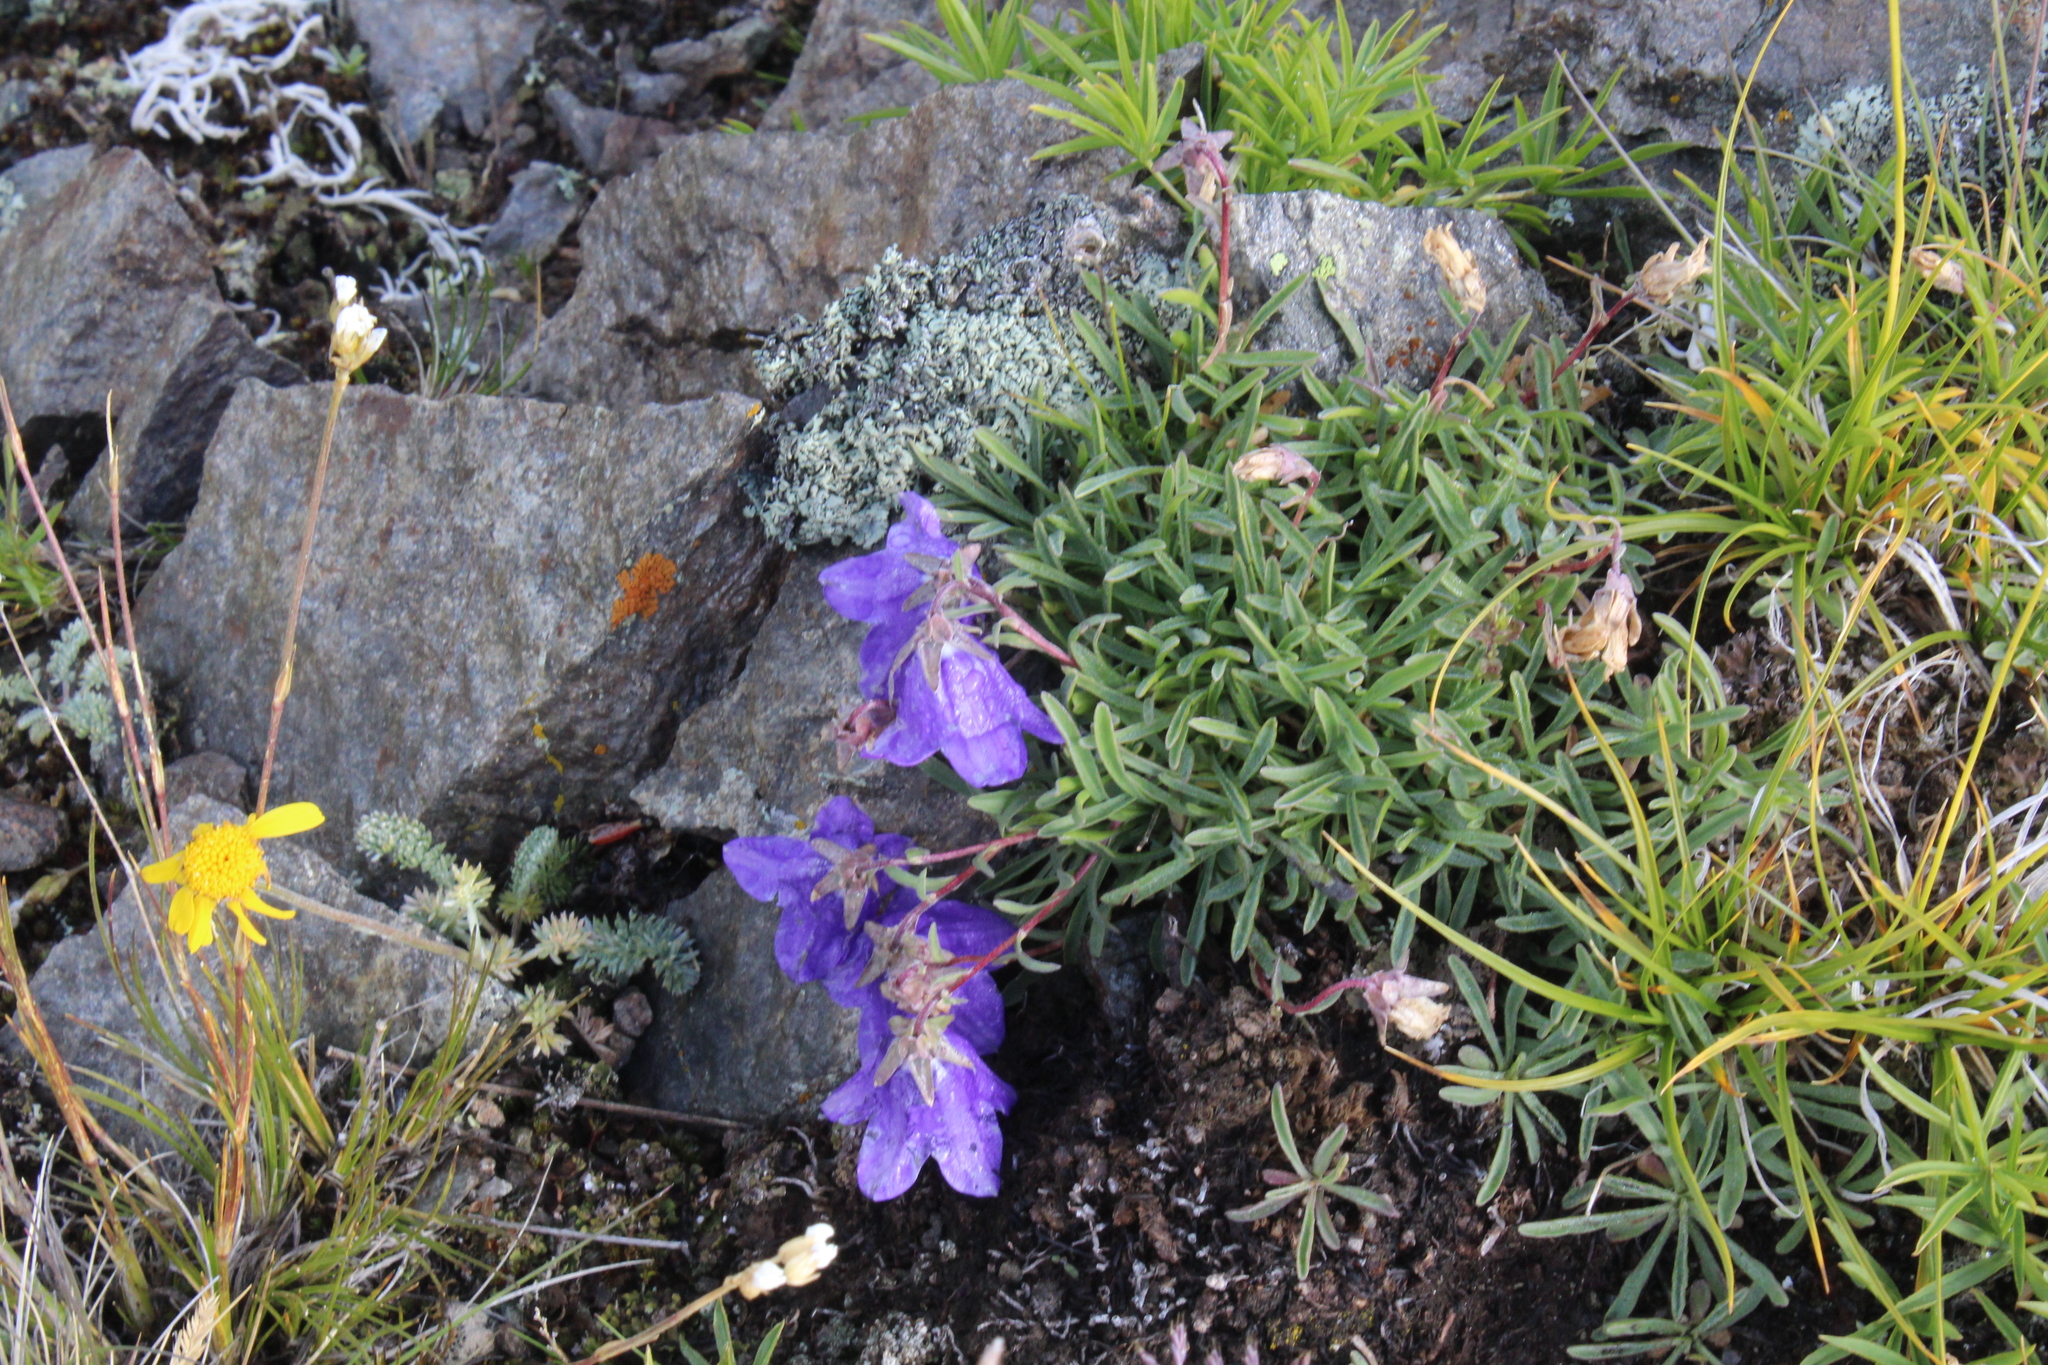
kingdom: Plantae
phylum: Tracheophyta
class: Magnoliopsida
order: Asterales
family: Campanulaceae
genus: Campanula
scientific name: Campanula saxifraga
